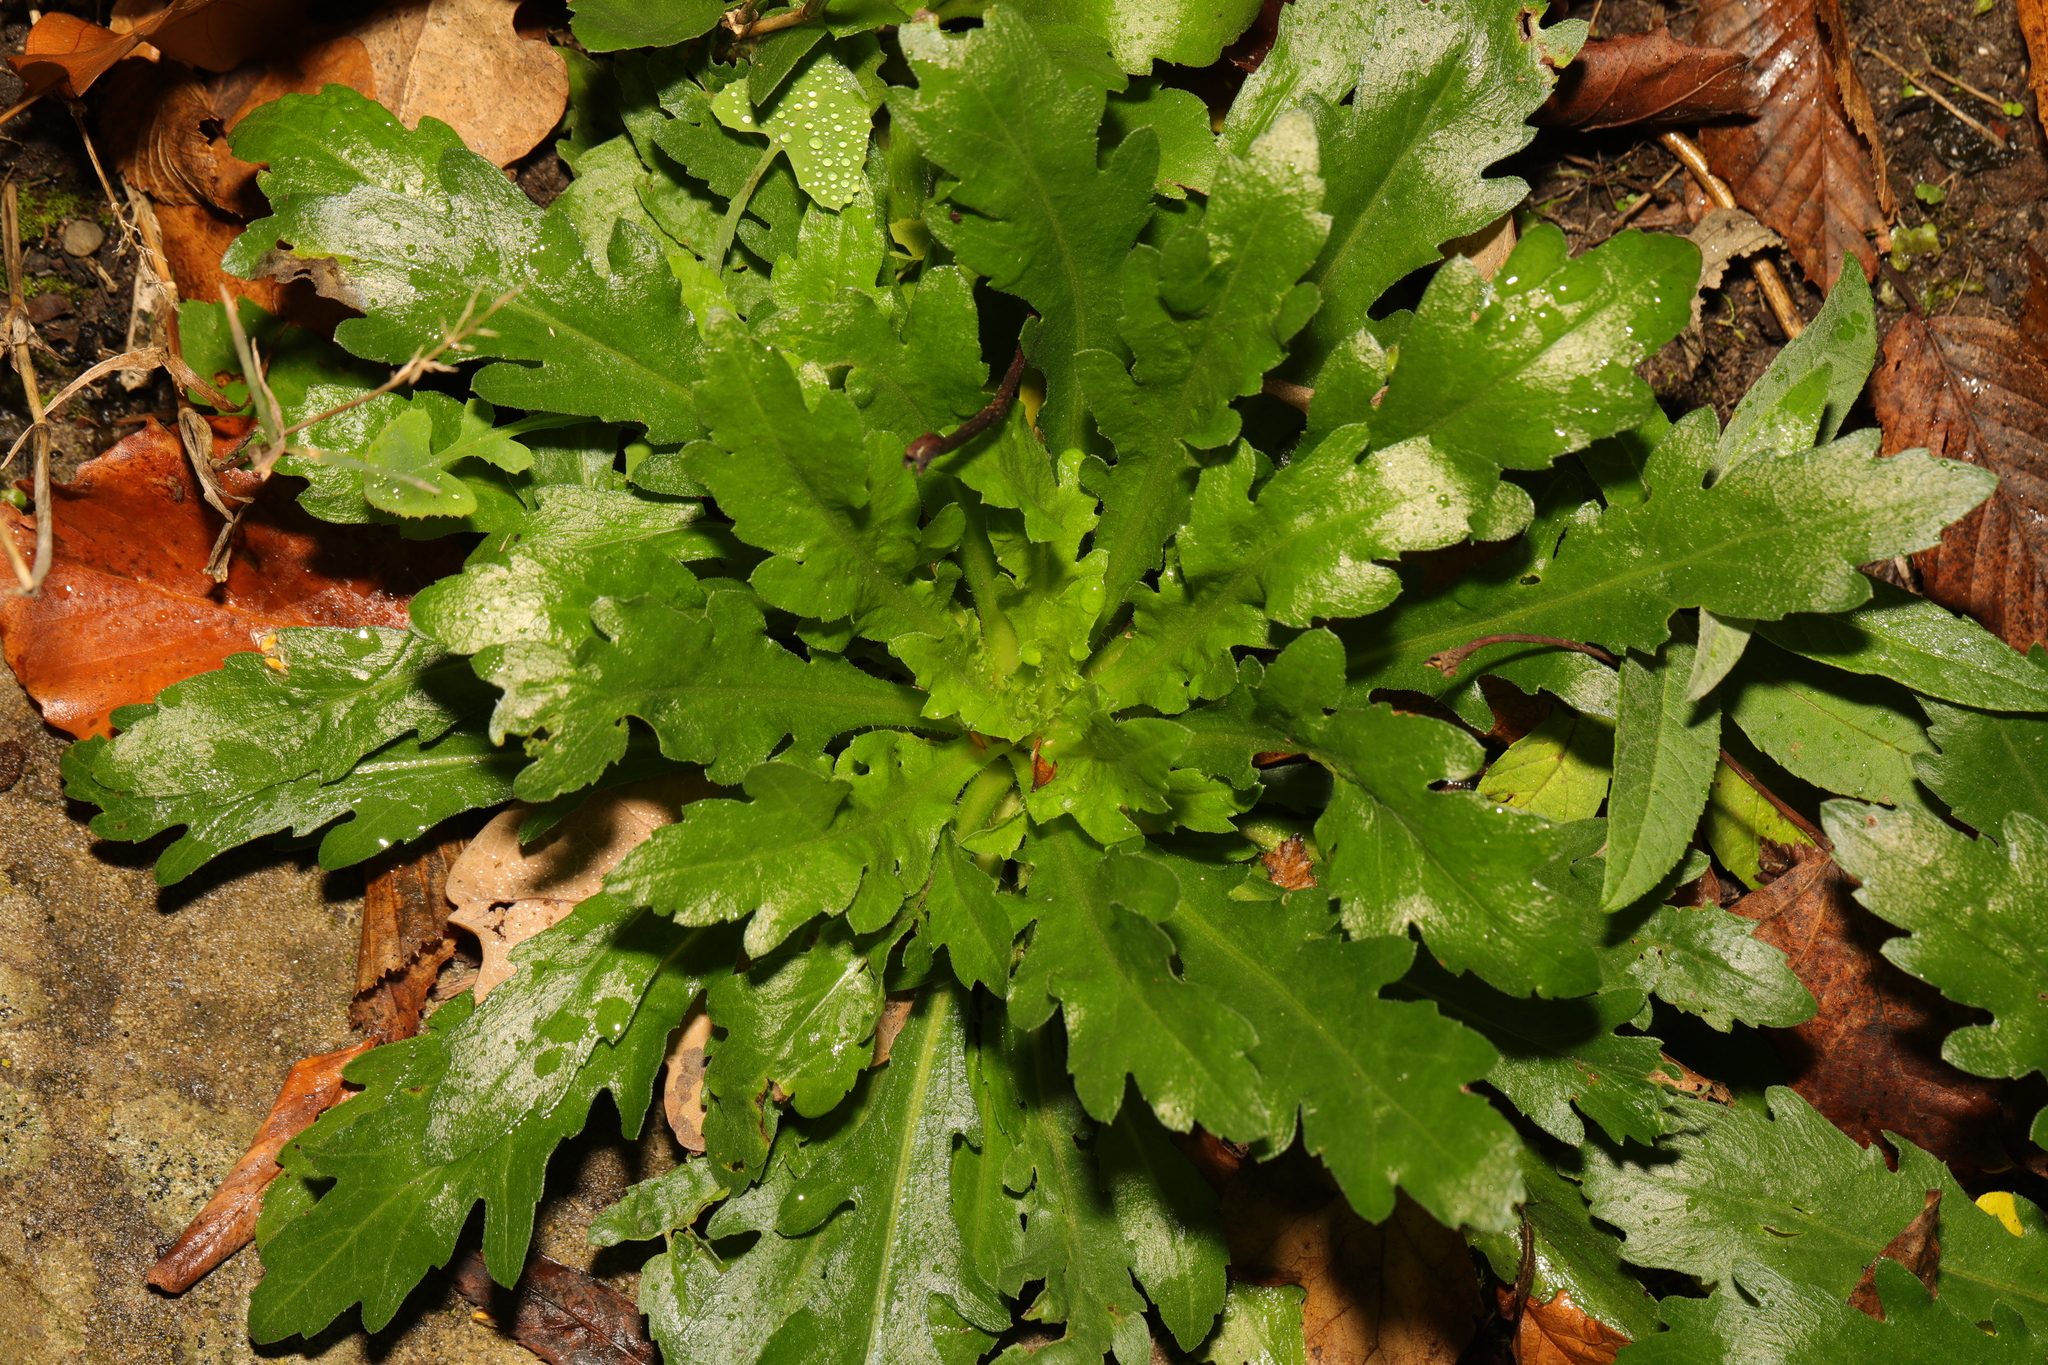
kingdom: Plantae
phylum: Tracheophyta
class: Magnoliopsida
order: Asterales
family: Asteraceae
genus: Leucanthemum
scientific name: Leucanthemum vulgare
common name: Oxeye daisy
